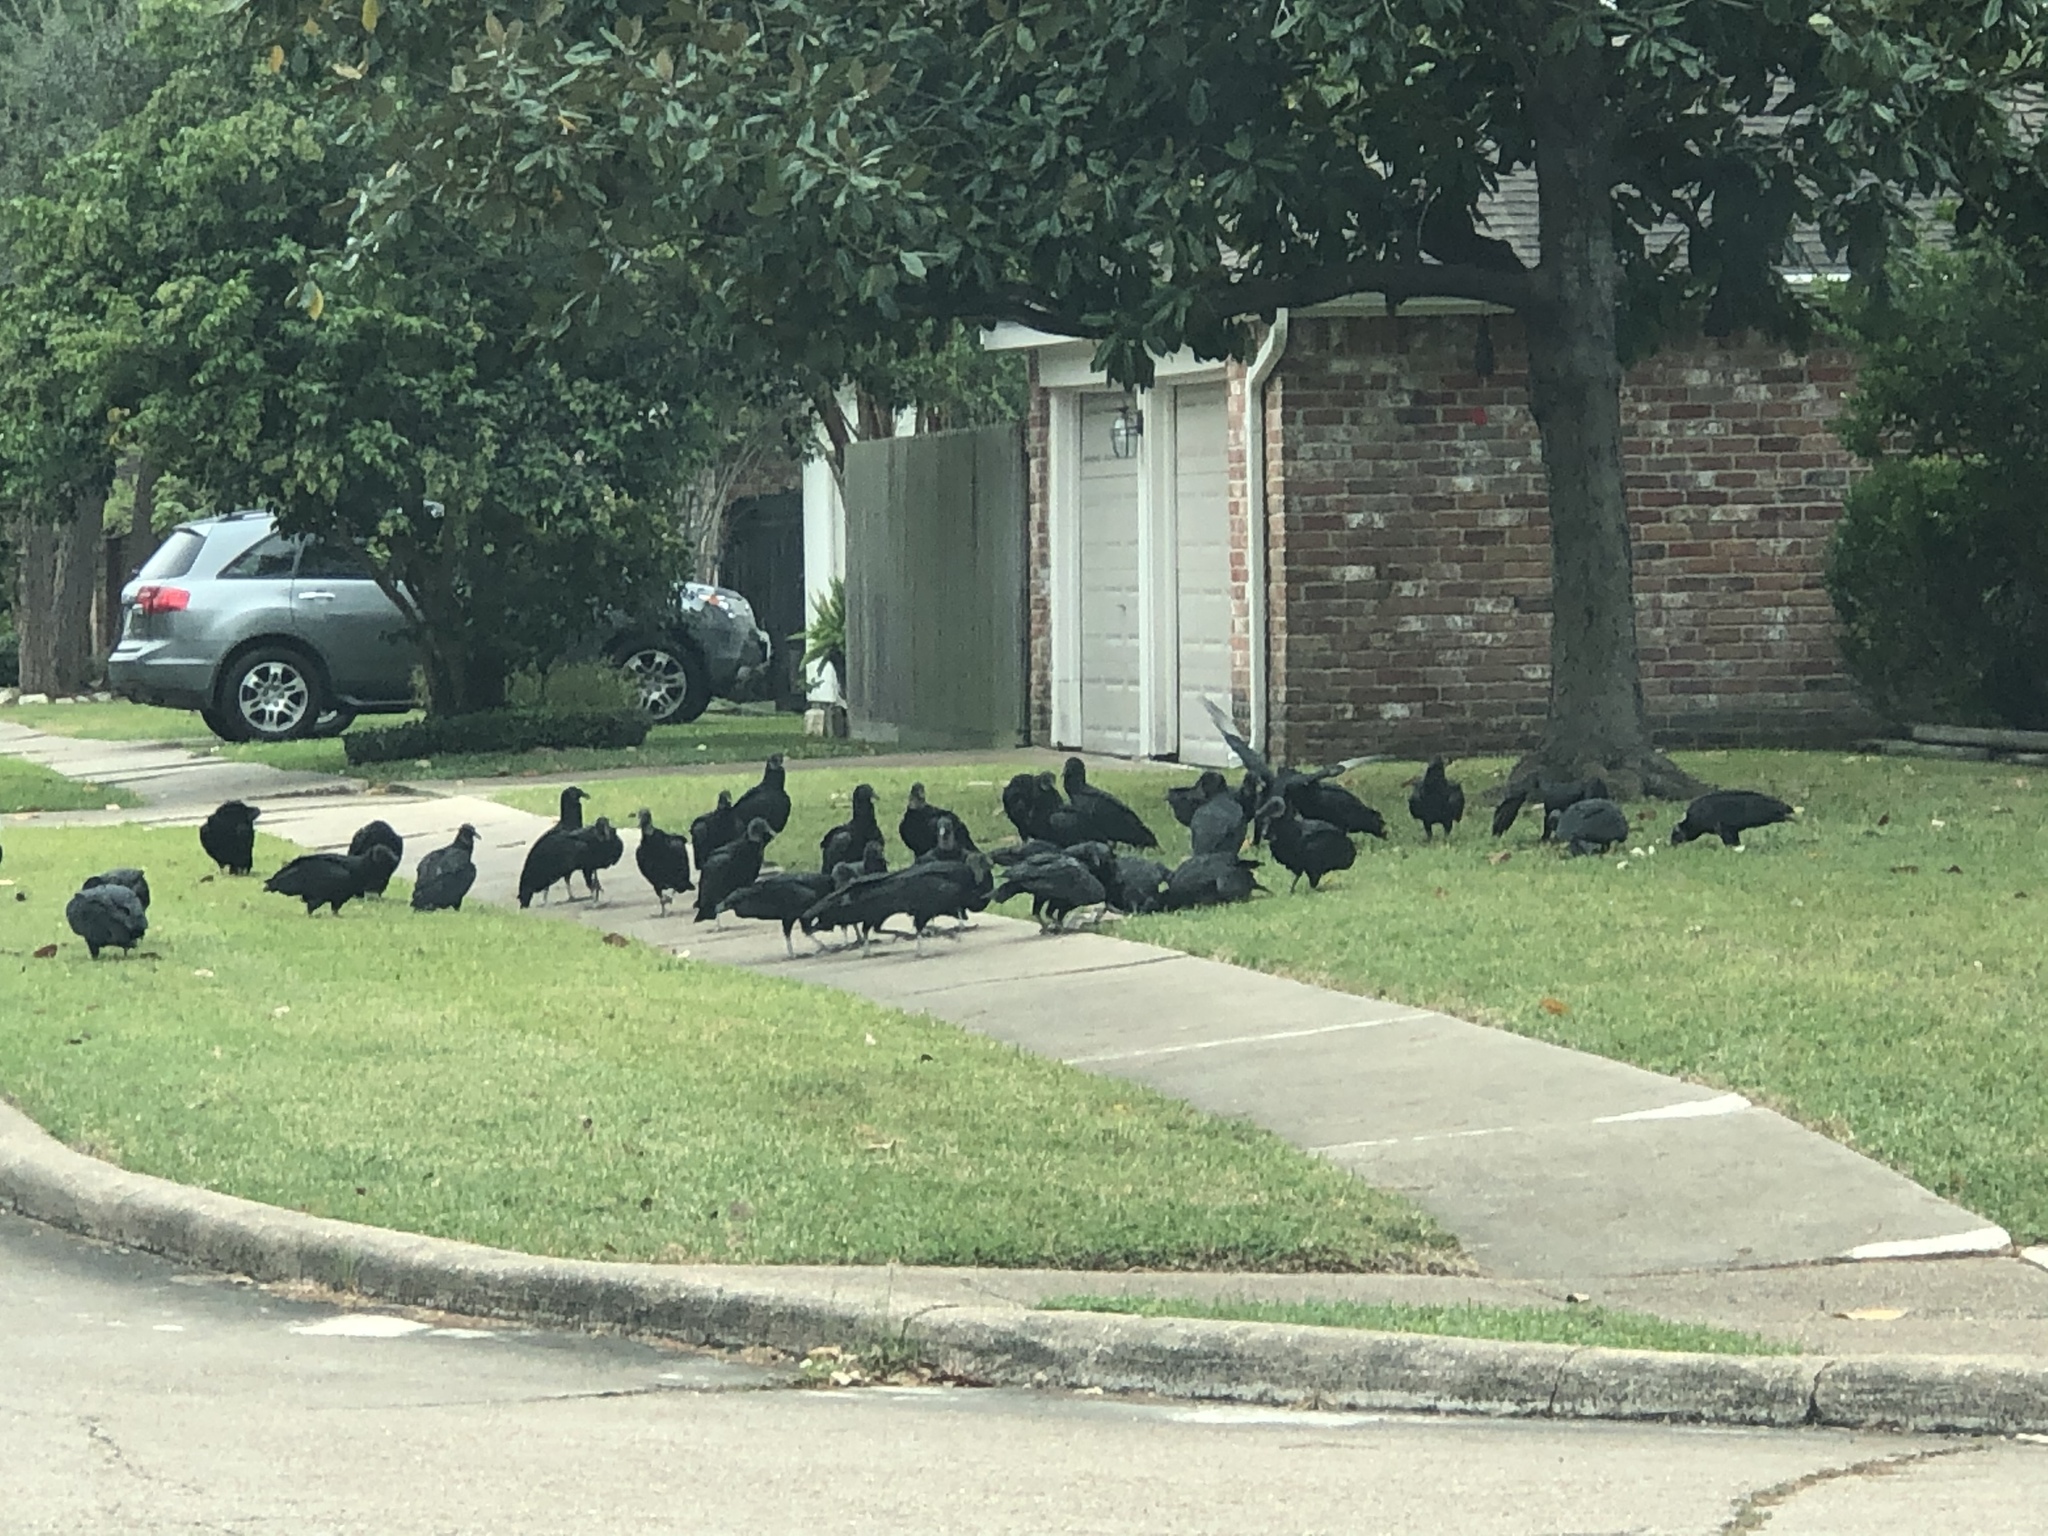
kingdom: Animalia
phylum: Chordata
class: Aves
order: Accipitriformes
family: Cathartidae
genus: Coragyps
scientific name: Coragyps atratus
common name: Black vulture
